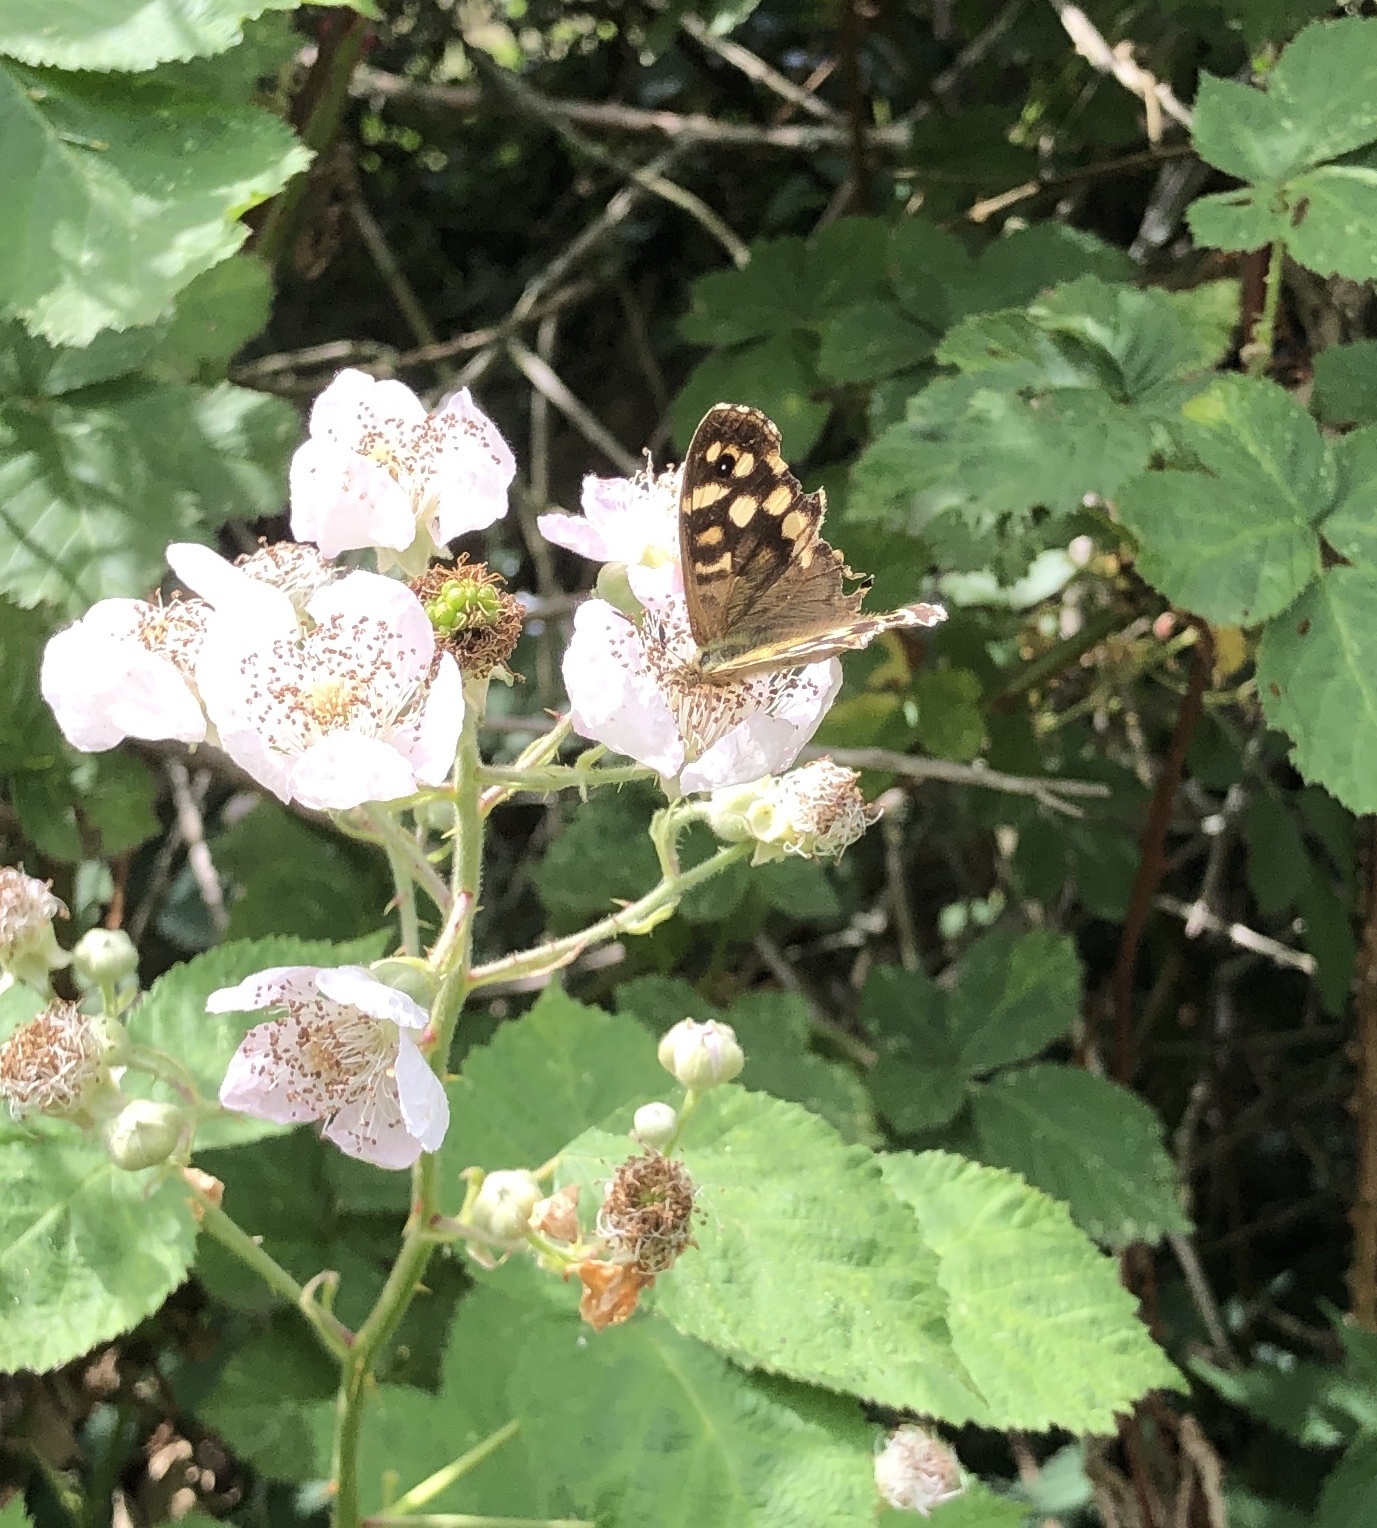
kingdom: Animalia
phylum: Arthropoda
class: Insecta
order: Lepidoptera
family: Nymphalidae
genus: Pararge
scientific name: Pararge aegeria
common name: Speckled wood
